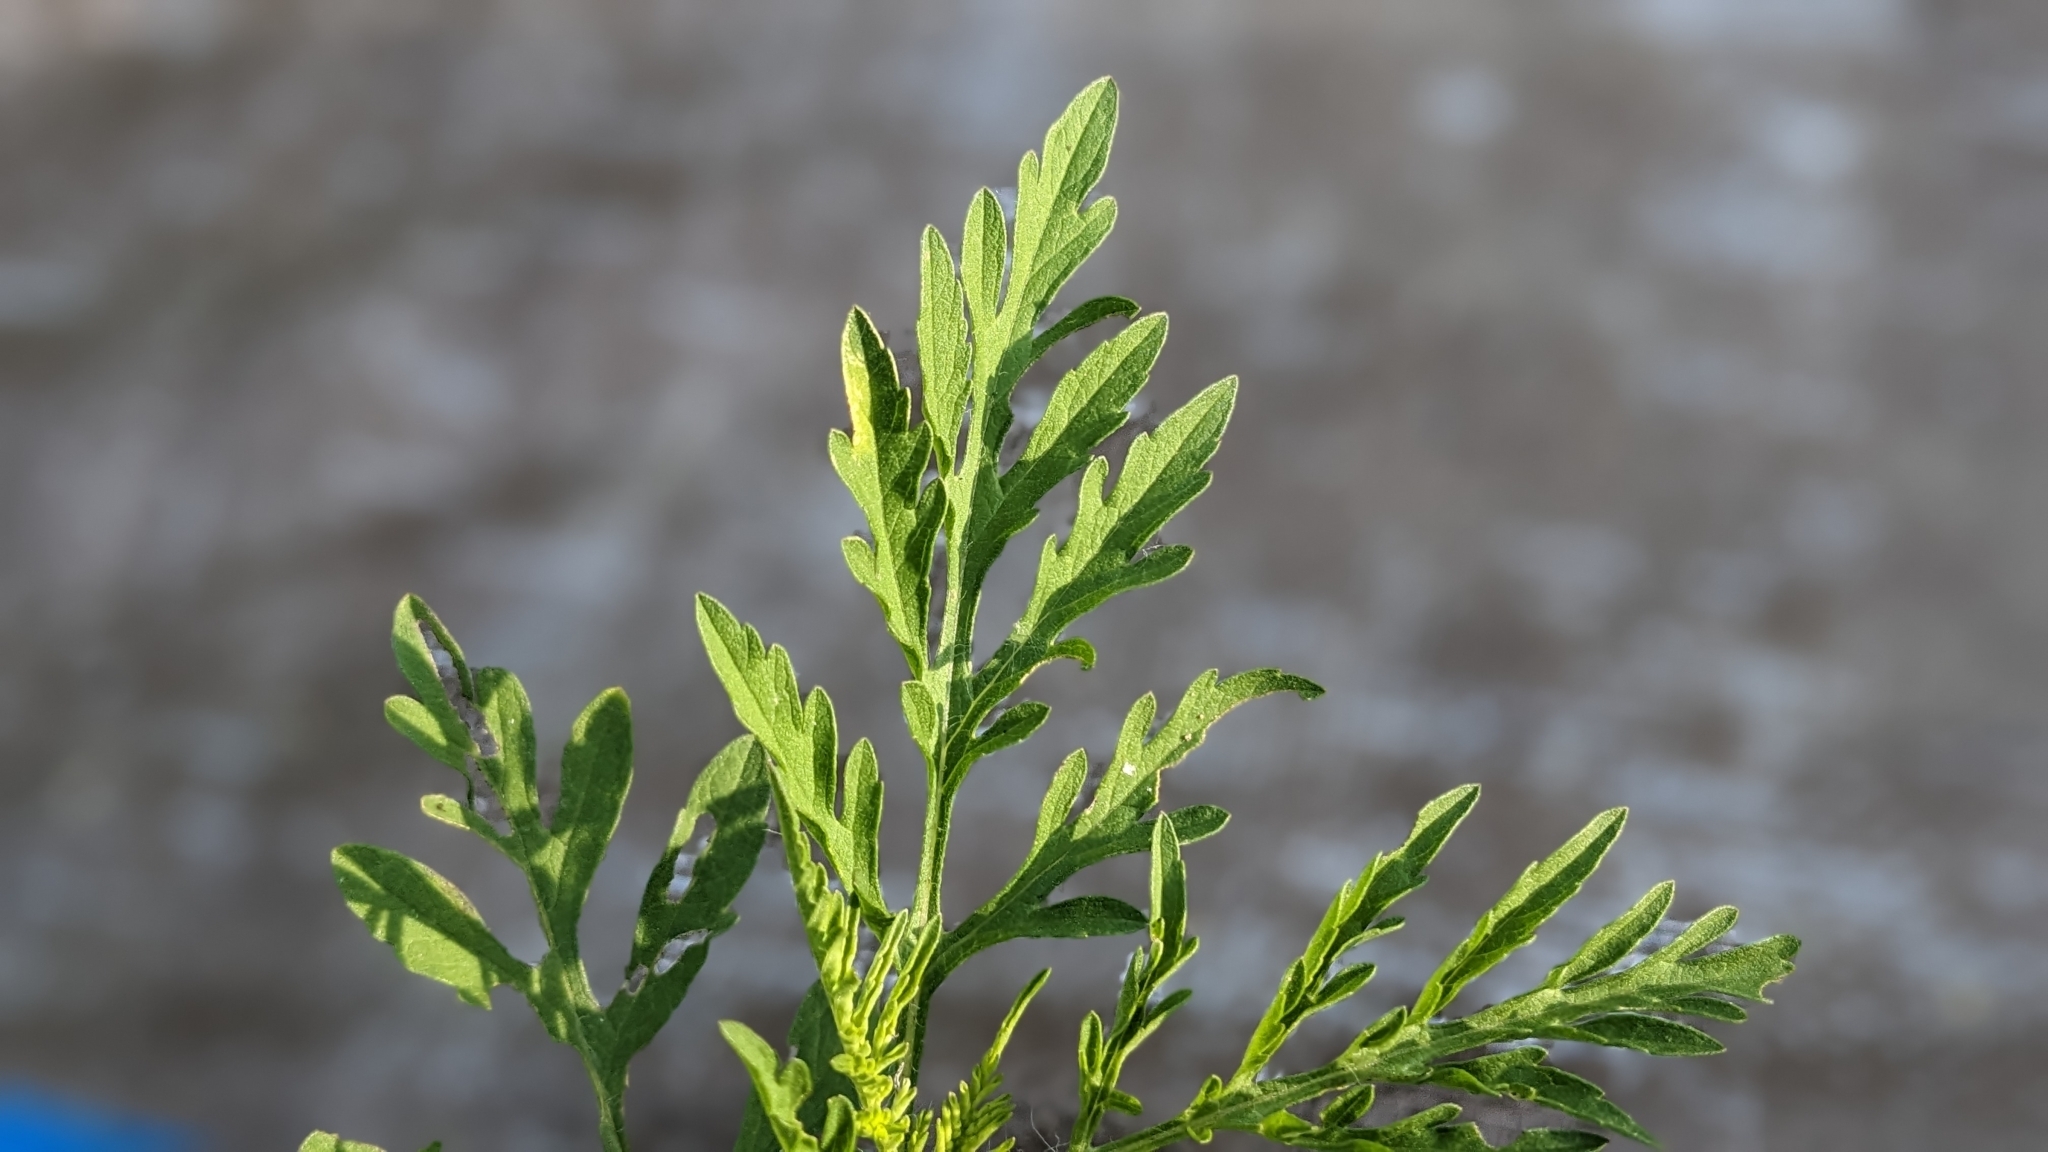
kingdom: Plantae
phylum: Tracheophyta
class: Magnoliopsida
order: Asterales
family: Asteraceae
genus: Ambrosia
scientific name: Ambrosia artemisiifolia
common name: Annual ragweed
